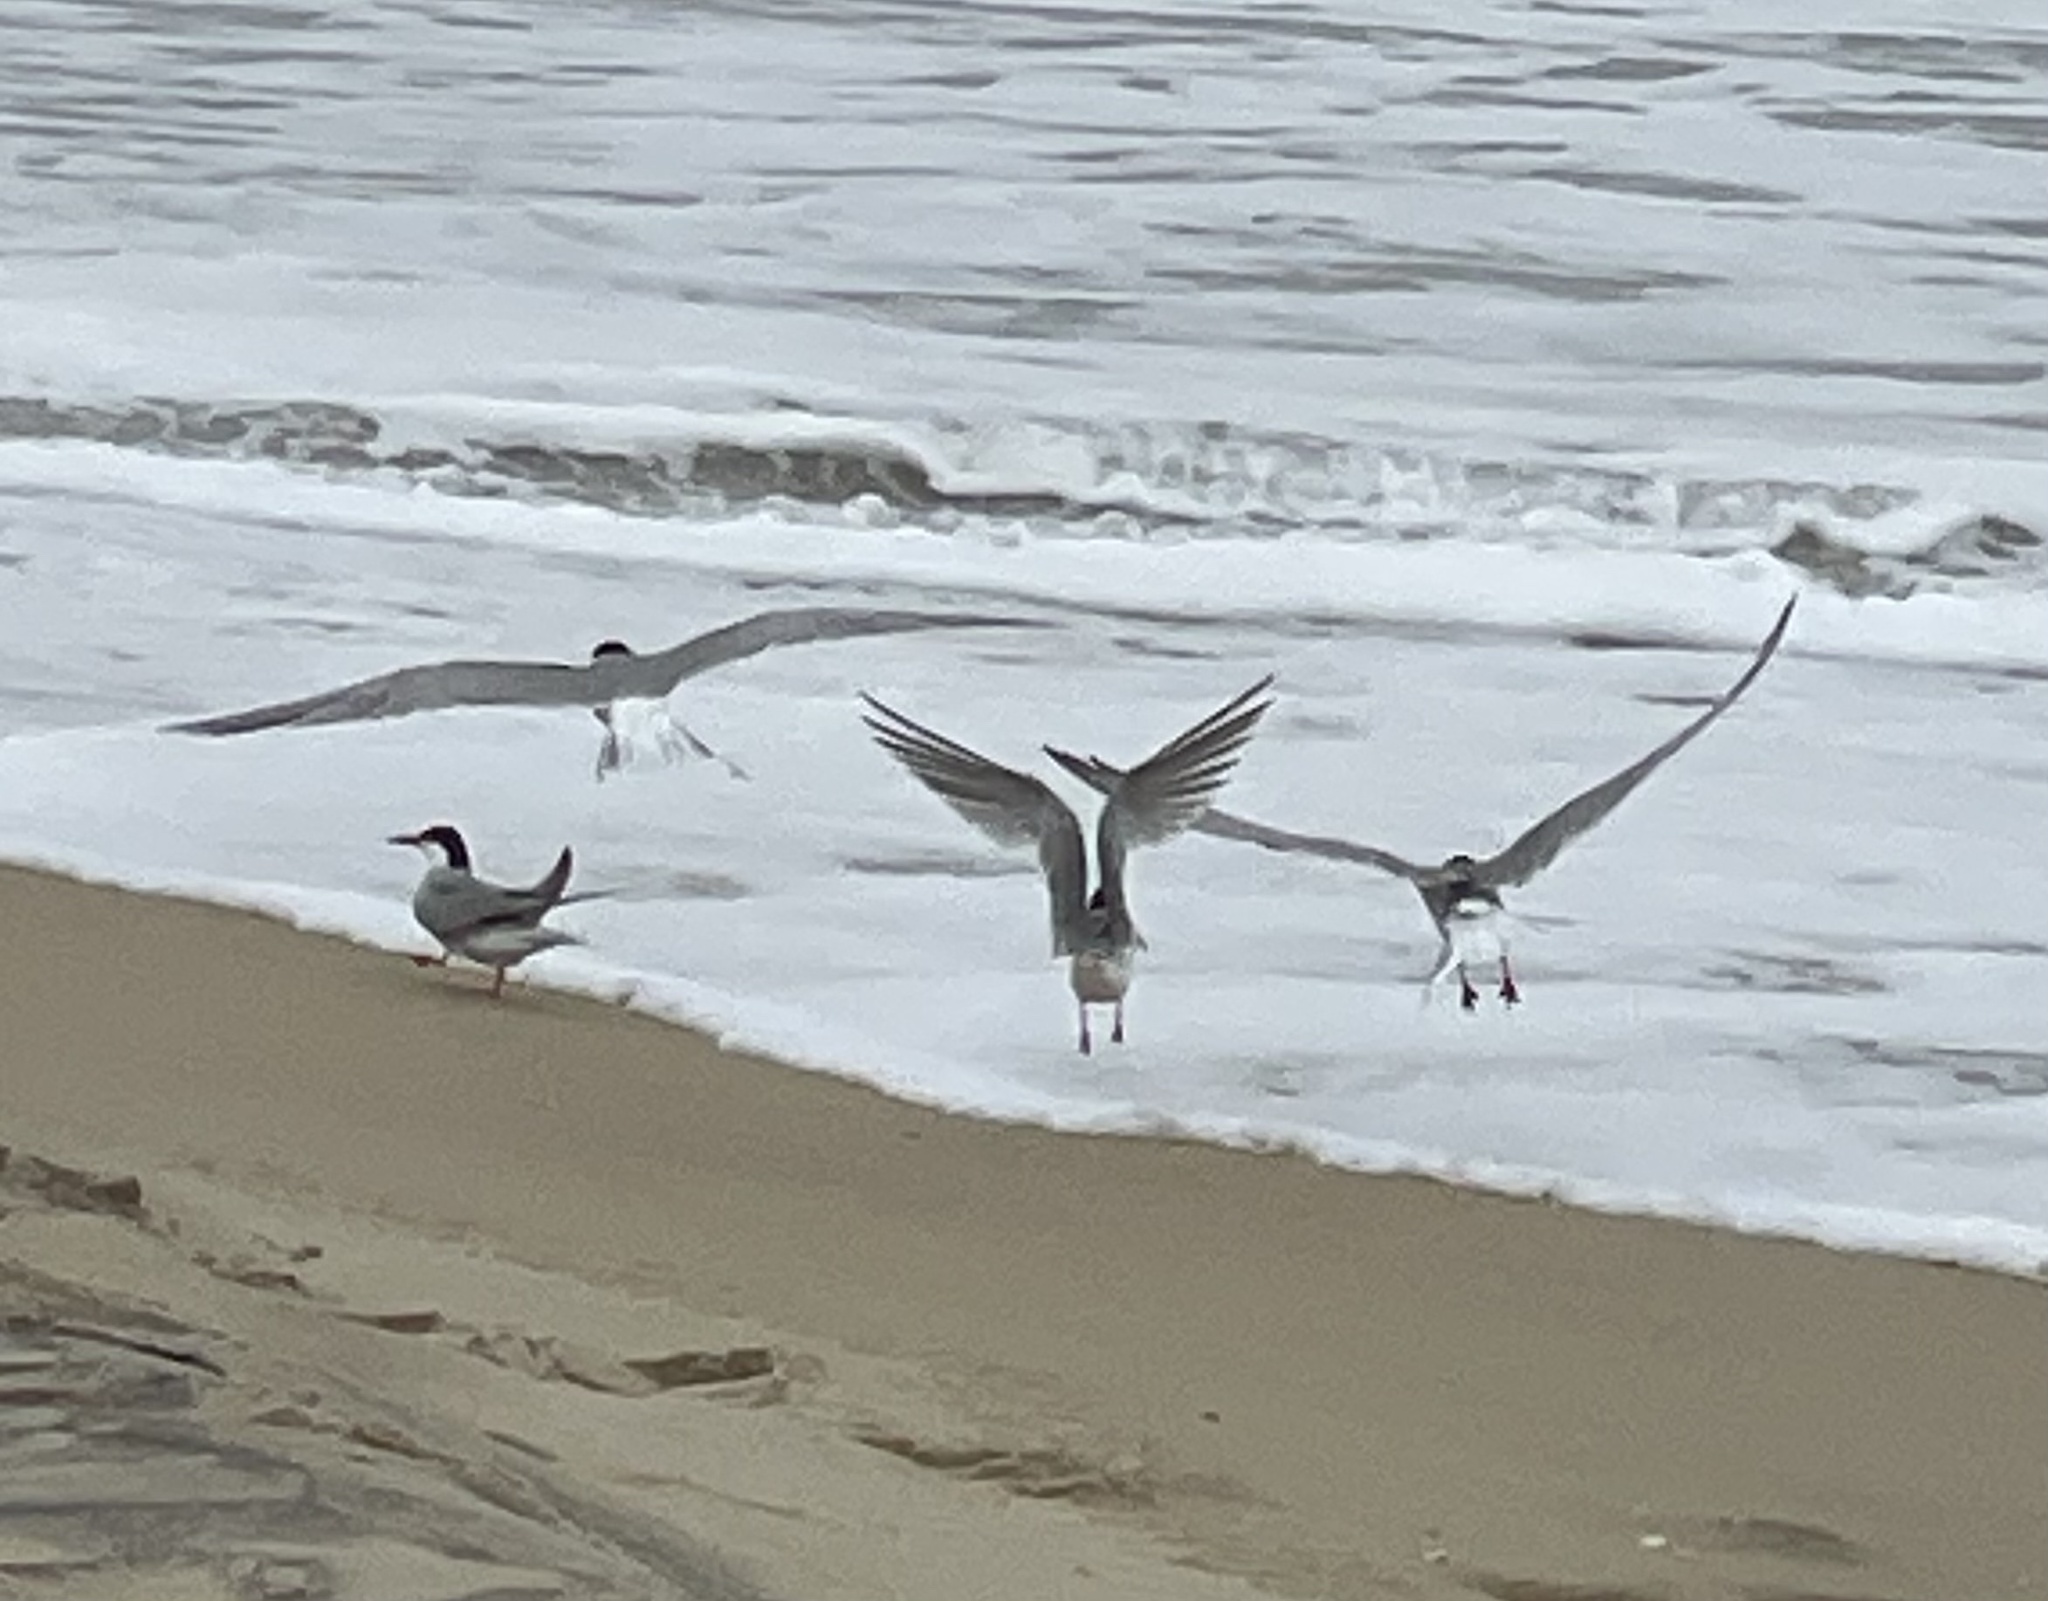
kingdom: Animalia
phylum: Chordata
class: Aves
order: Charadriiformes
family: Laridae
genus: Sterna
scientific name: Sterna hirundo
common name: Common tern
